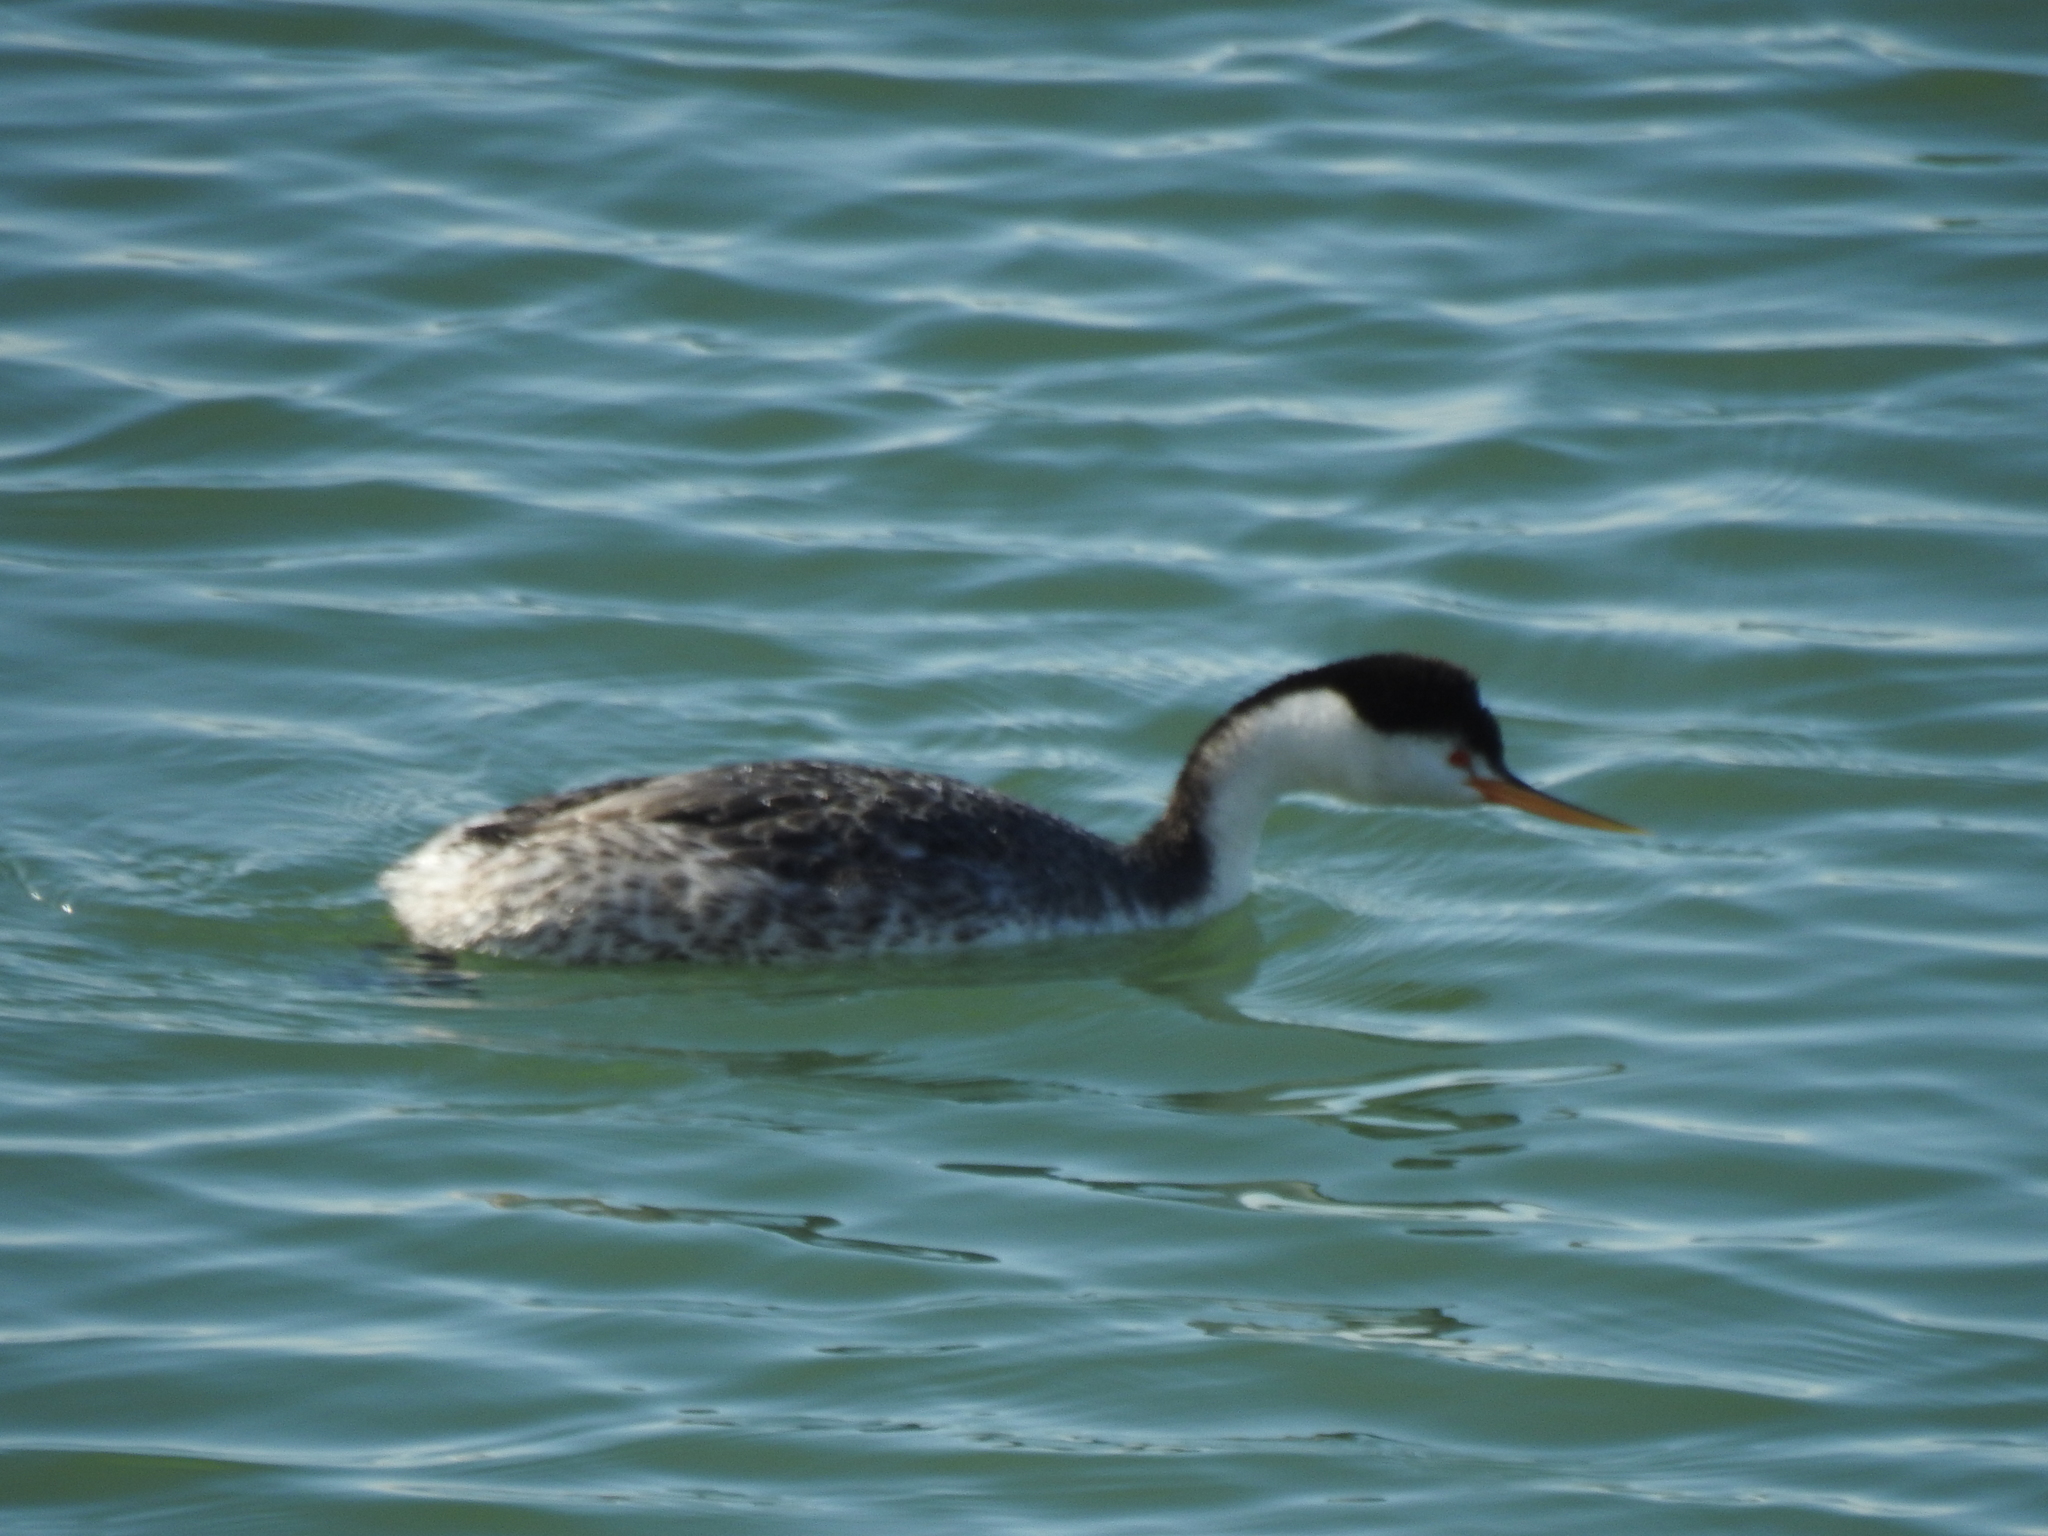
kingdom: Animalia
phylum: Chordata
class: Aves
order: Podicipediformes
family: Podicipedidae
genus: Aechmophorus
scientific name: Aechmophorus clarkii
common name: Clark's grebe
